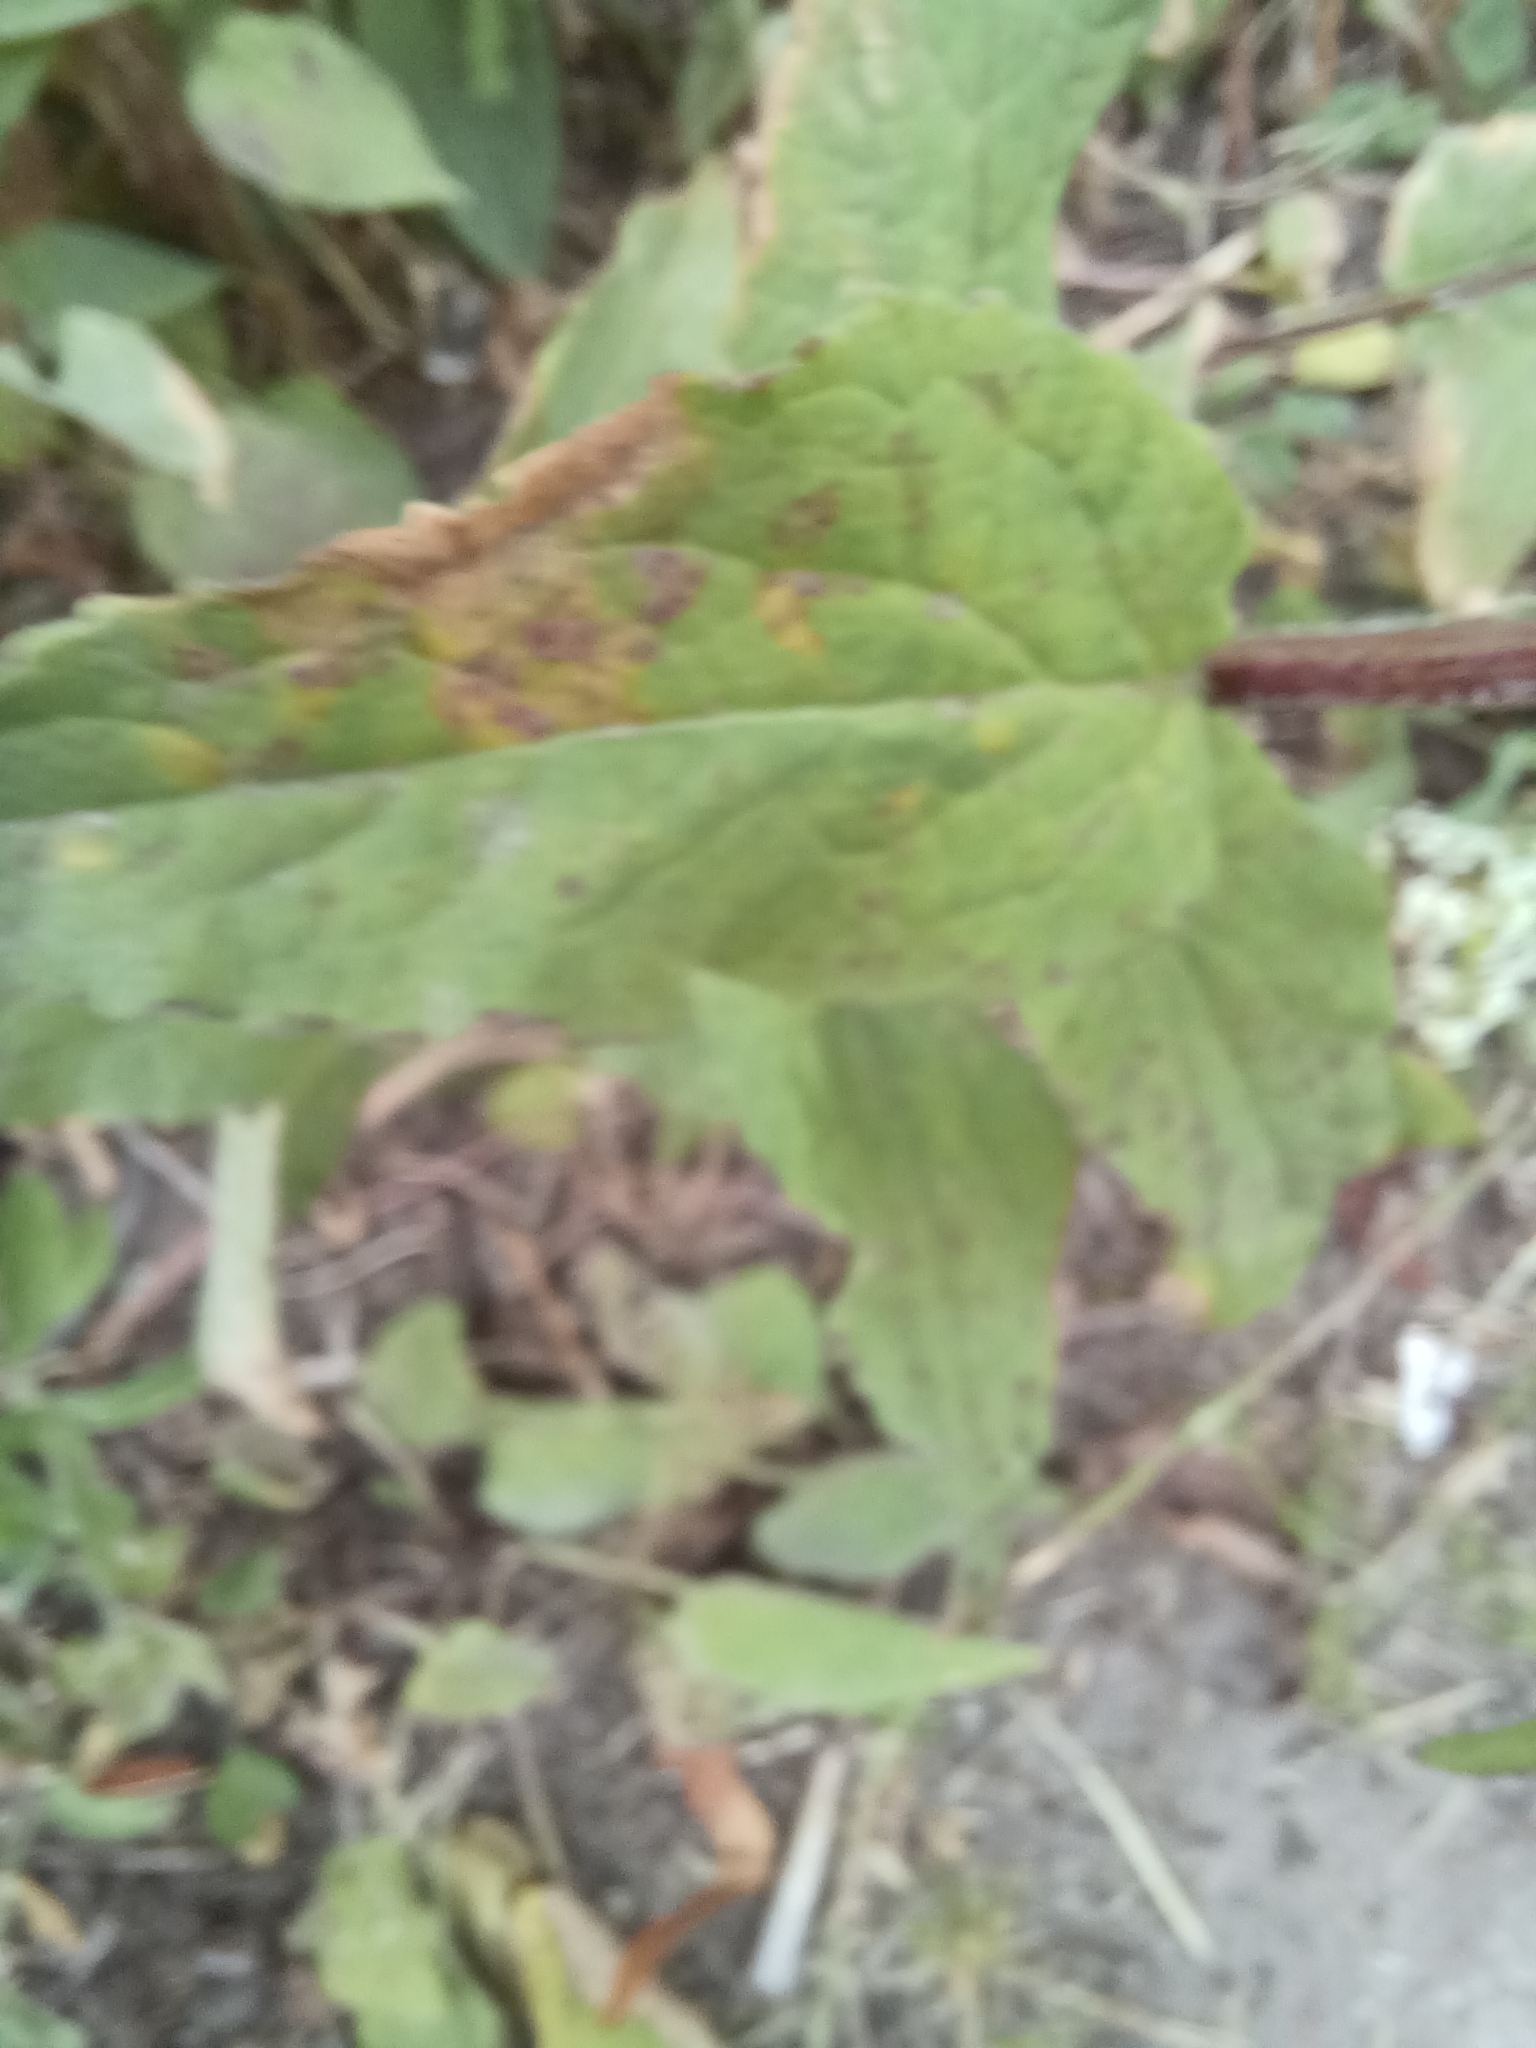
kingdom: Plantae
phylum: Tracheophyta
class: Magnoliopsida
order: Asterales
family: Campanulaceae
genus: Campanula
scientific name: Campanula rapunculoides
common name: Creeping bellflower
